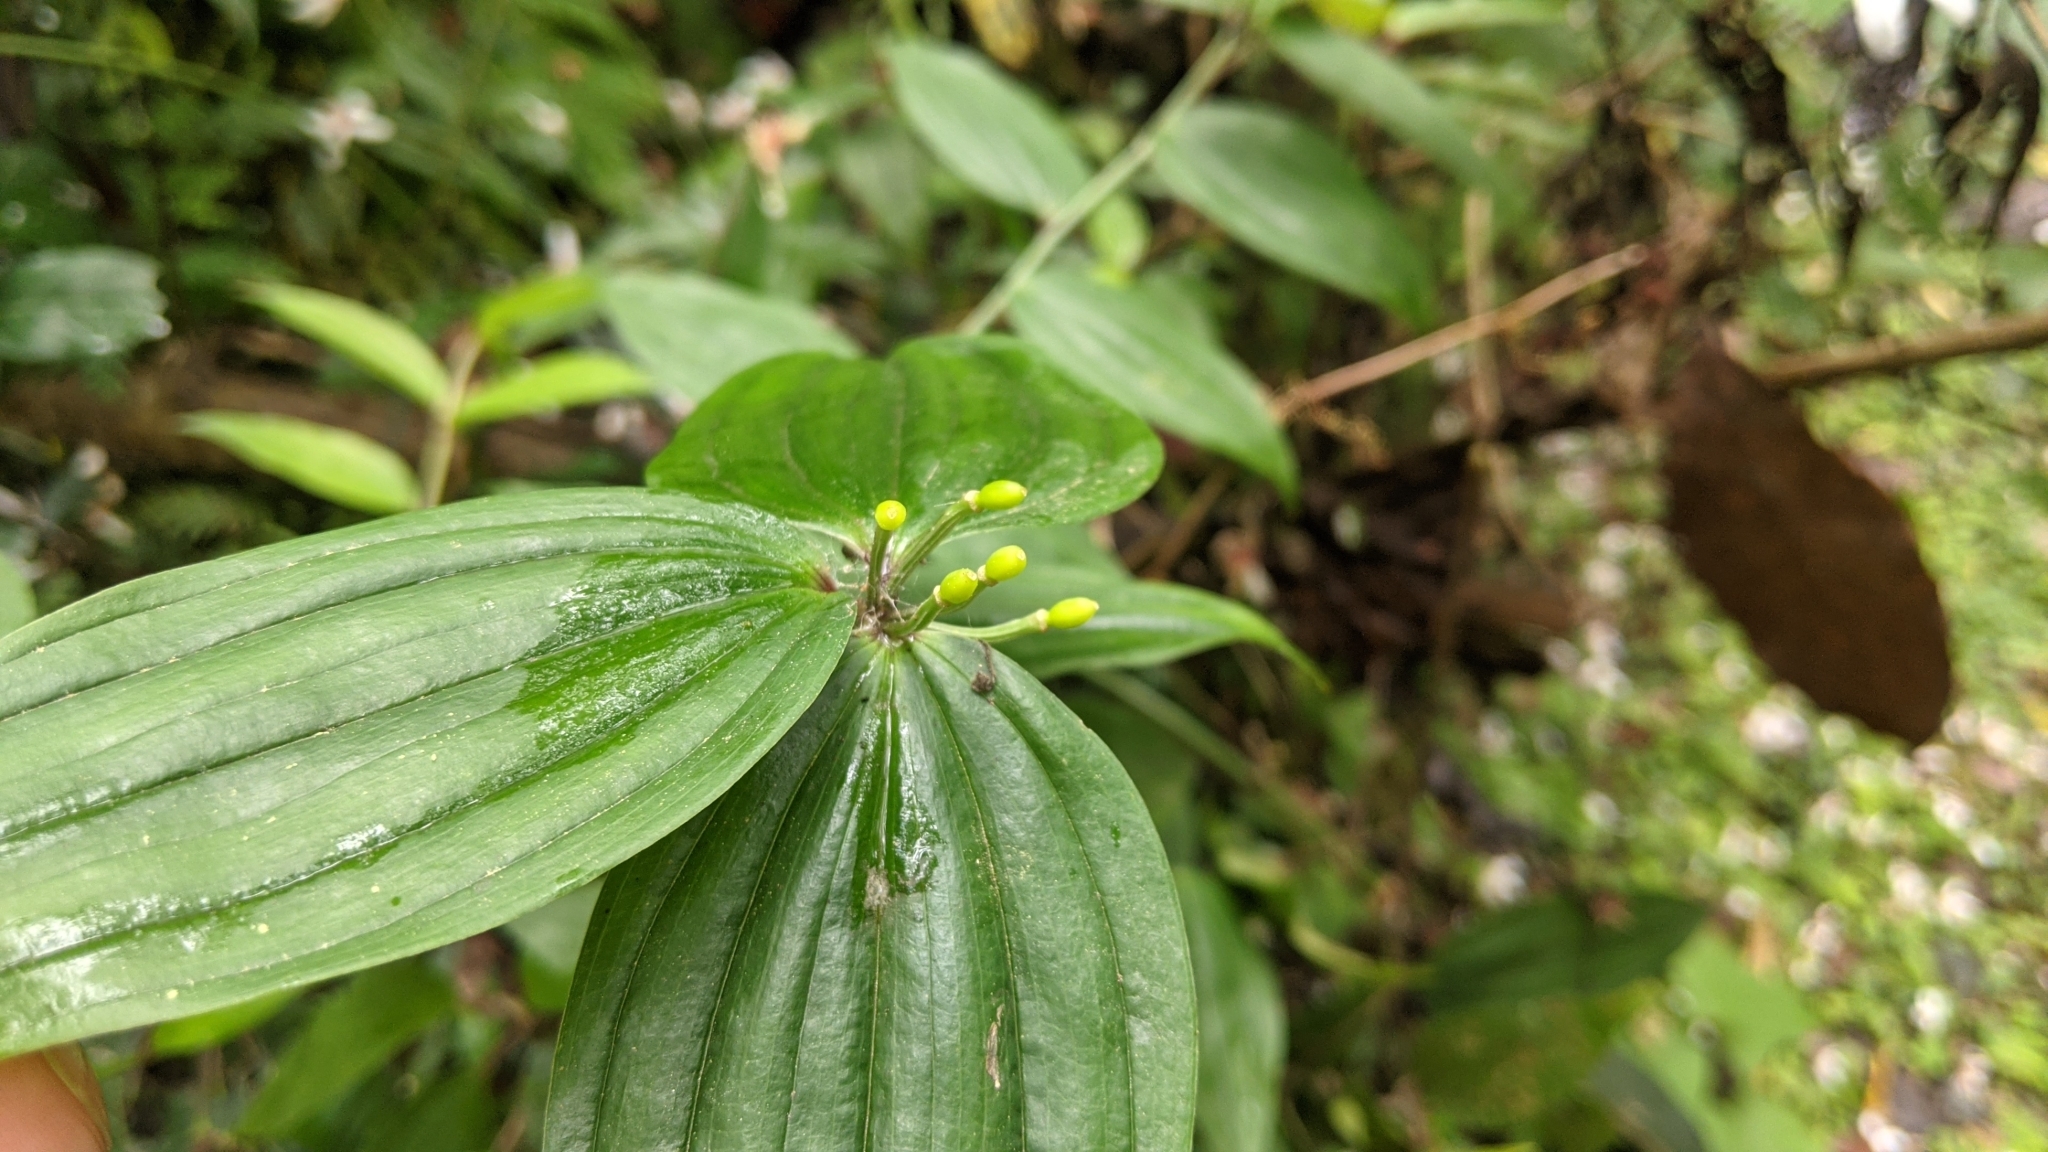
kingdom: Plantae
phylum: Tracheophyta
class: Liliopsida
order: Liliales
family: Colchicaceae
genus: Disporum
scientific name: Disporum kawakamii
